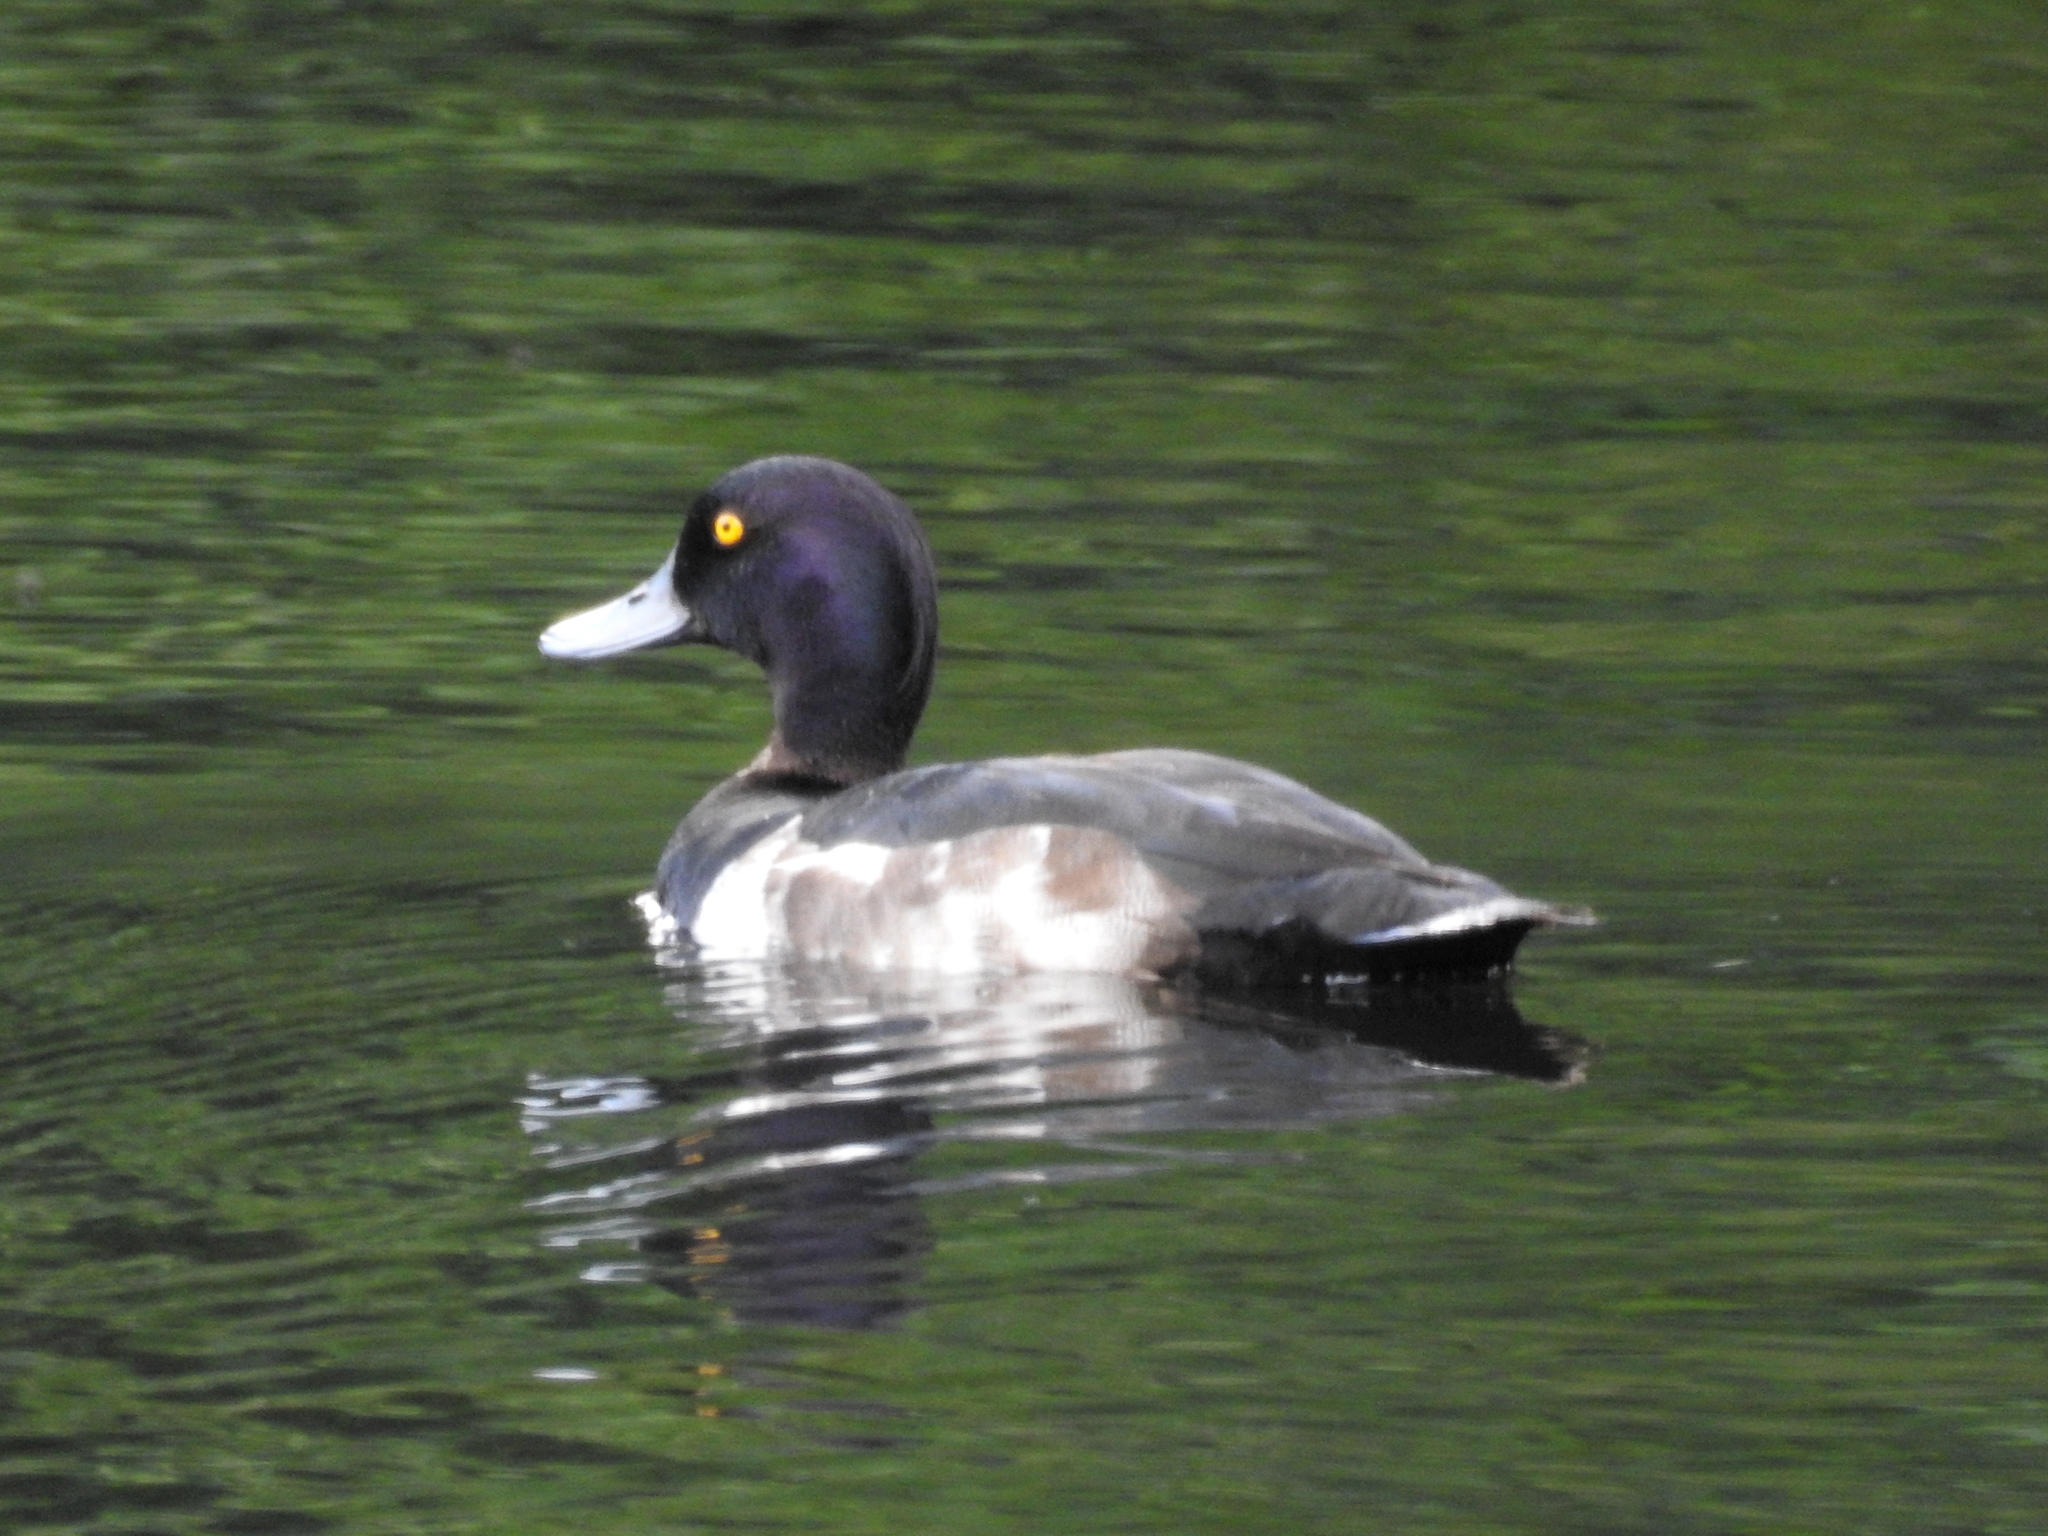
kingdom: Animalia
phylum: Chordata
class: Aves
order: Anseriformes
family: Anatidae
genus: Aythya
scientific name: Aythya fuligula
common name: Tufted duck
